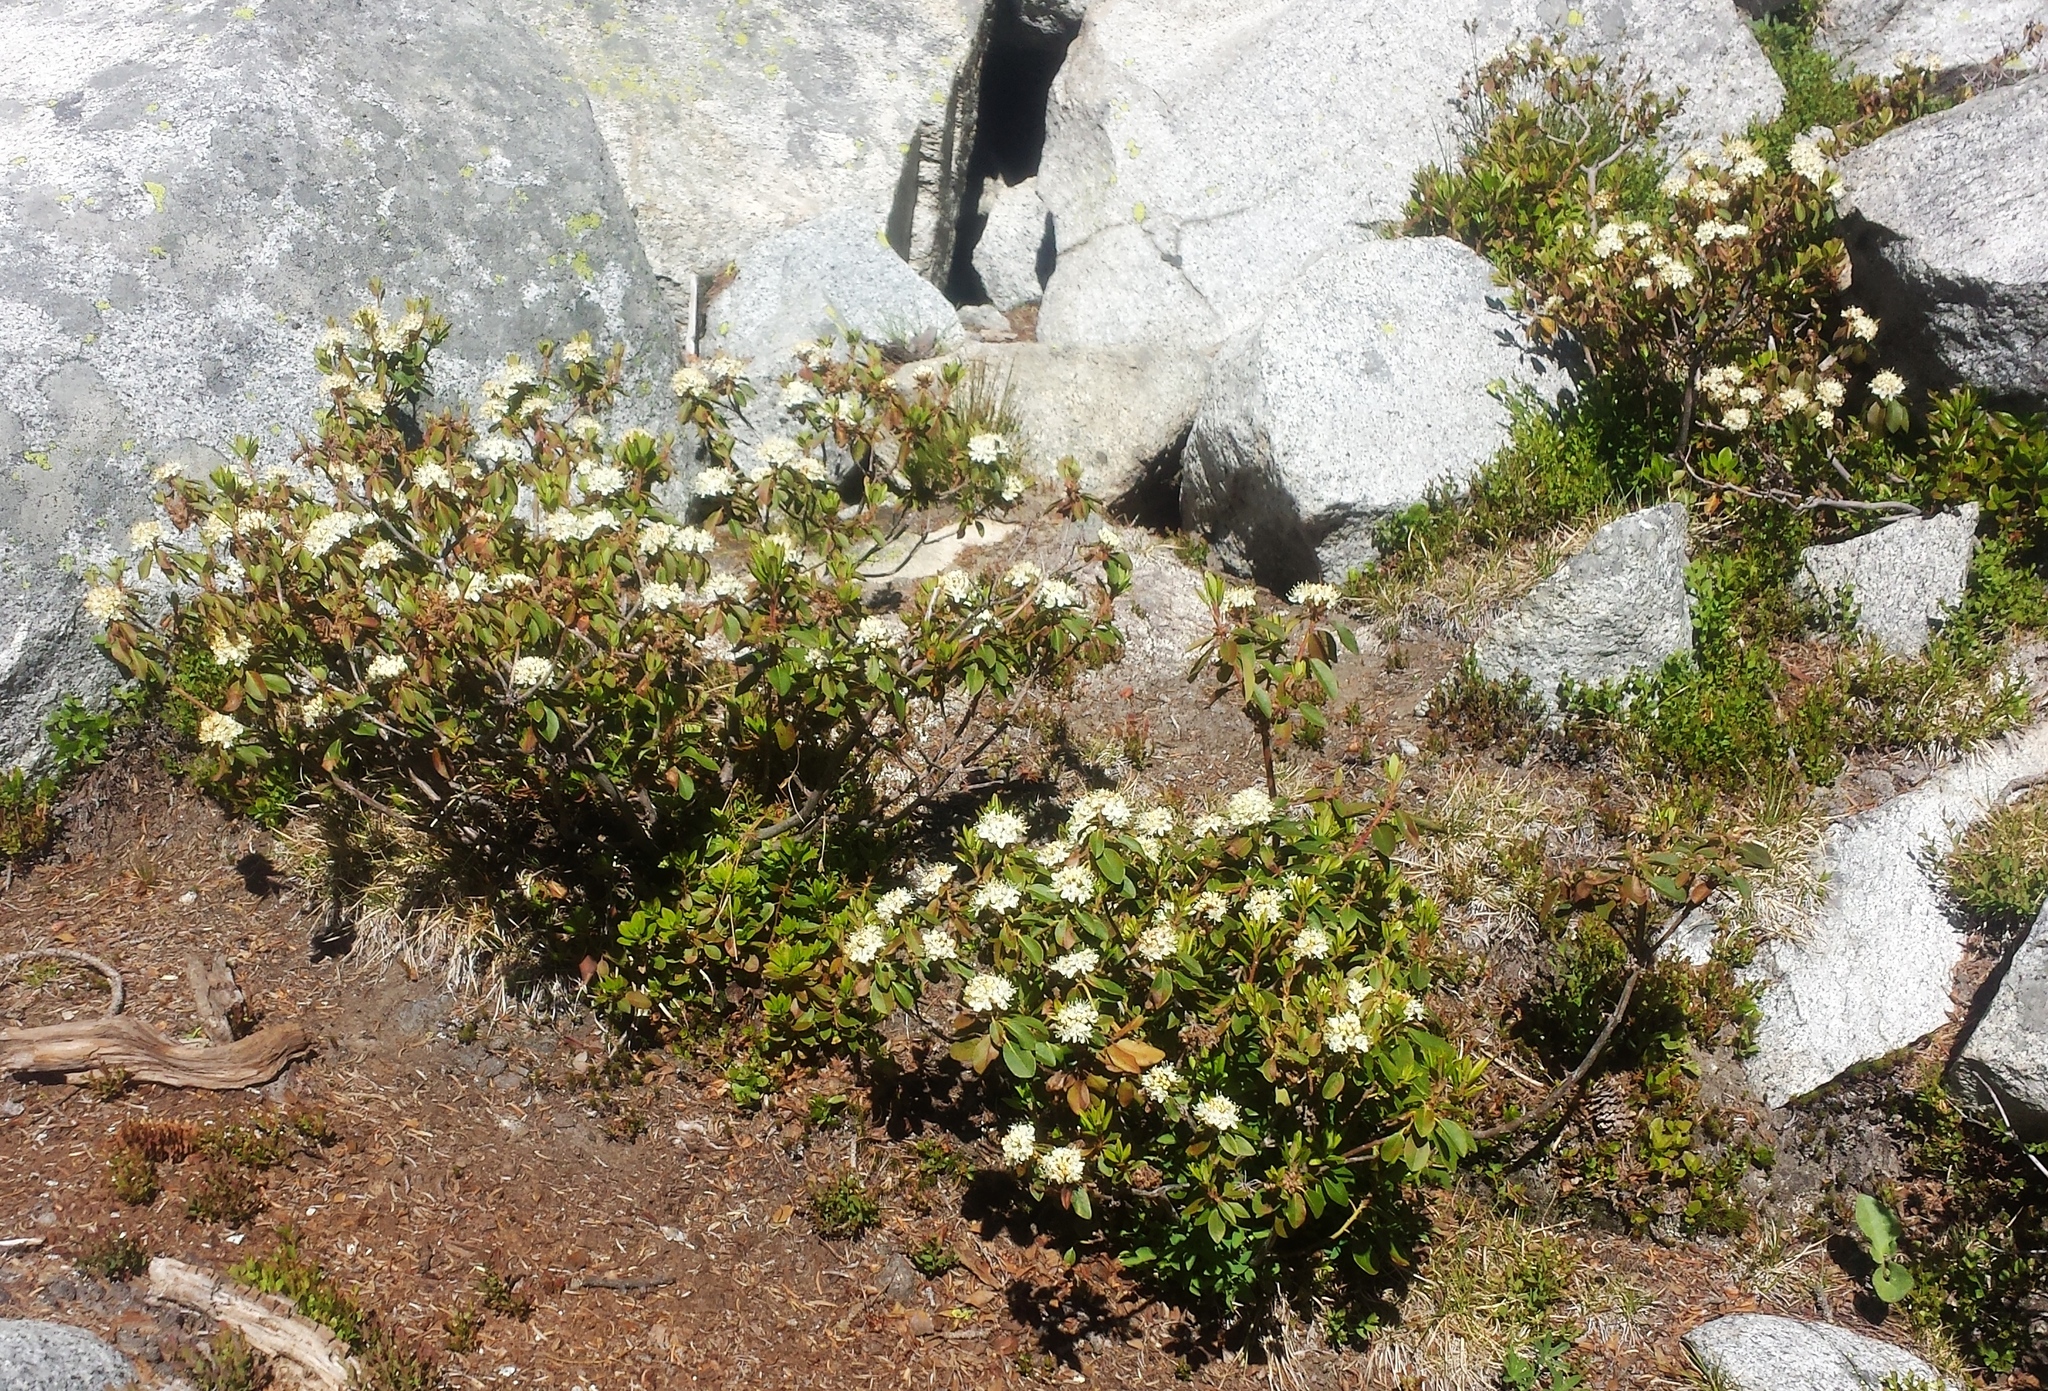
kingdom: Plantae
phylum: Tracheophyta
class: Magnoliopsida
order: Ericales
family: Ericaceae
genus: Rhododendron
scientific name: Rhododendron columbianum
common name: Western labrador tea
